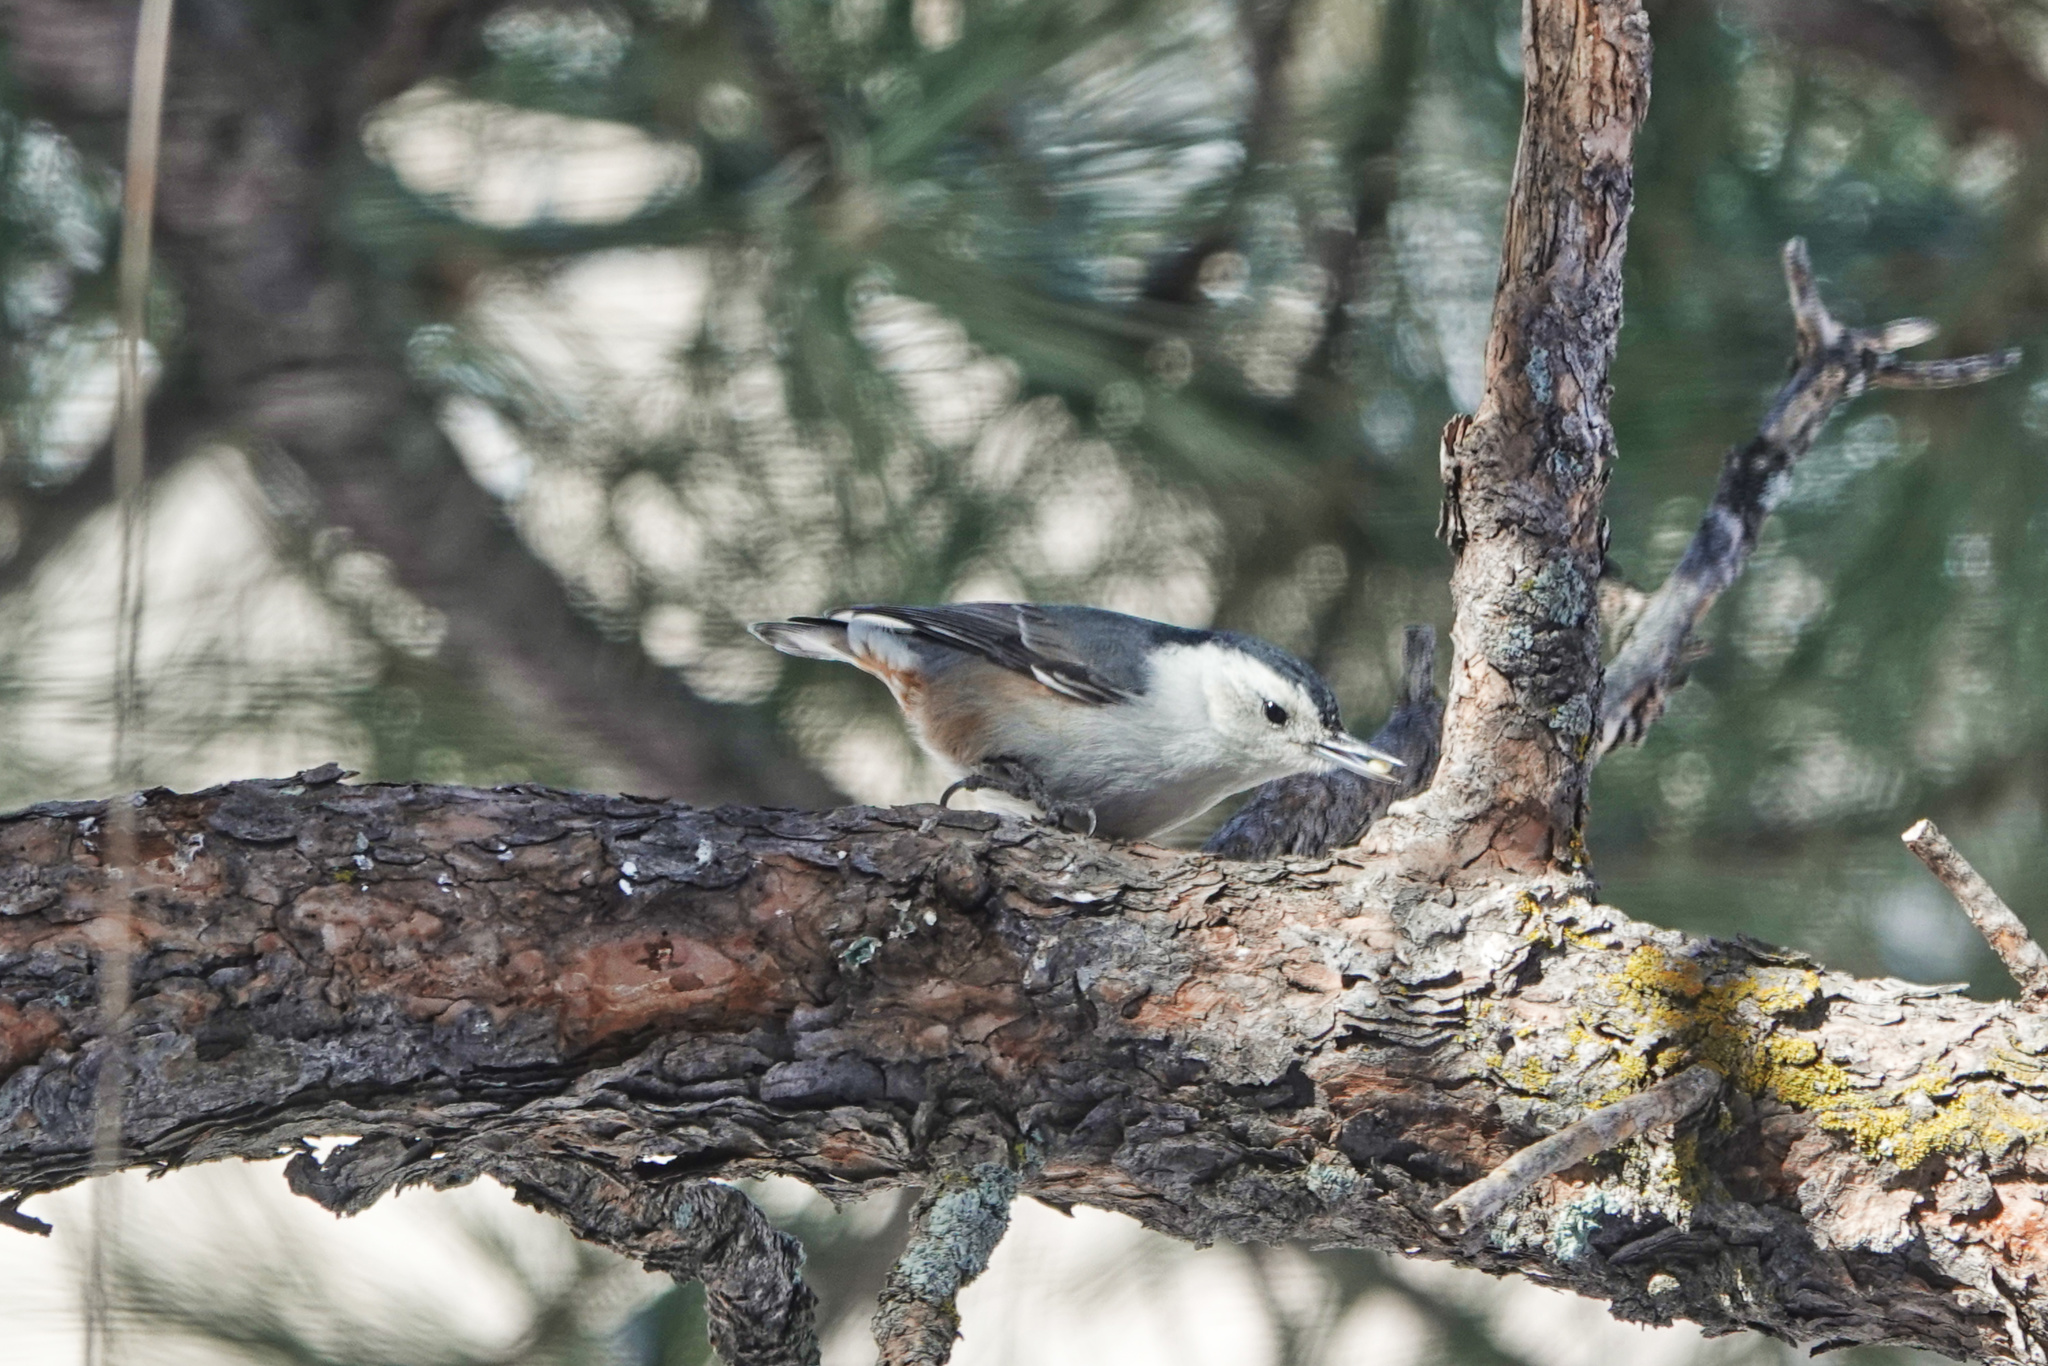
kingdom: Animalia
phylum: Chordata
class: Aves
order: Passeriformes
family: Sittidae
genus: Sitta
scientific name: Sitta carolinensis
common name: White-breasted nuthatch
